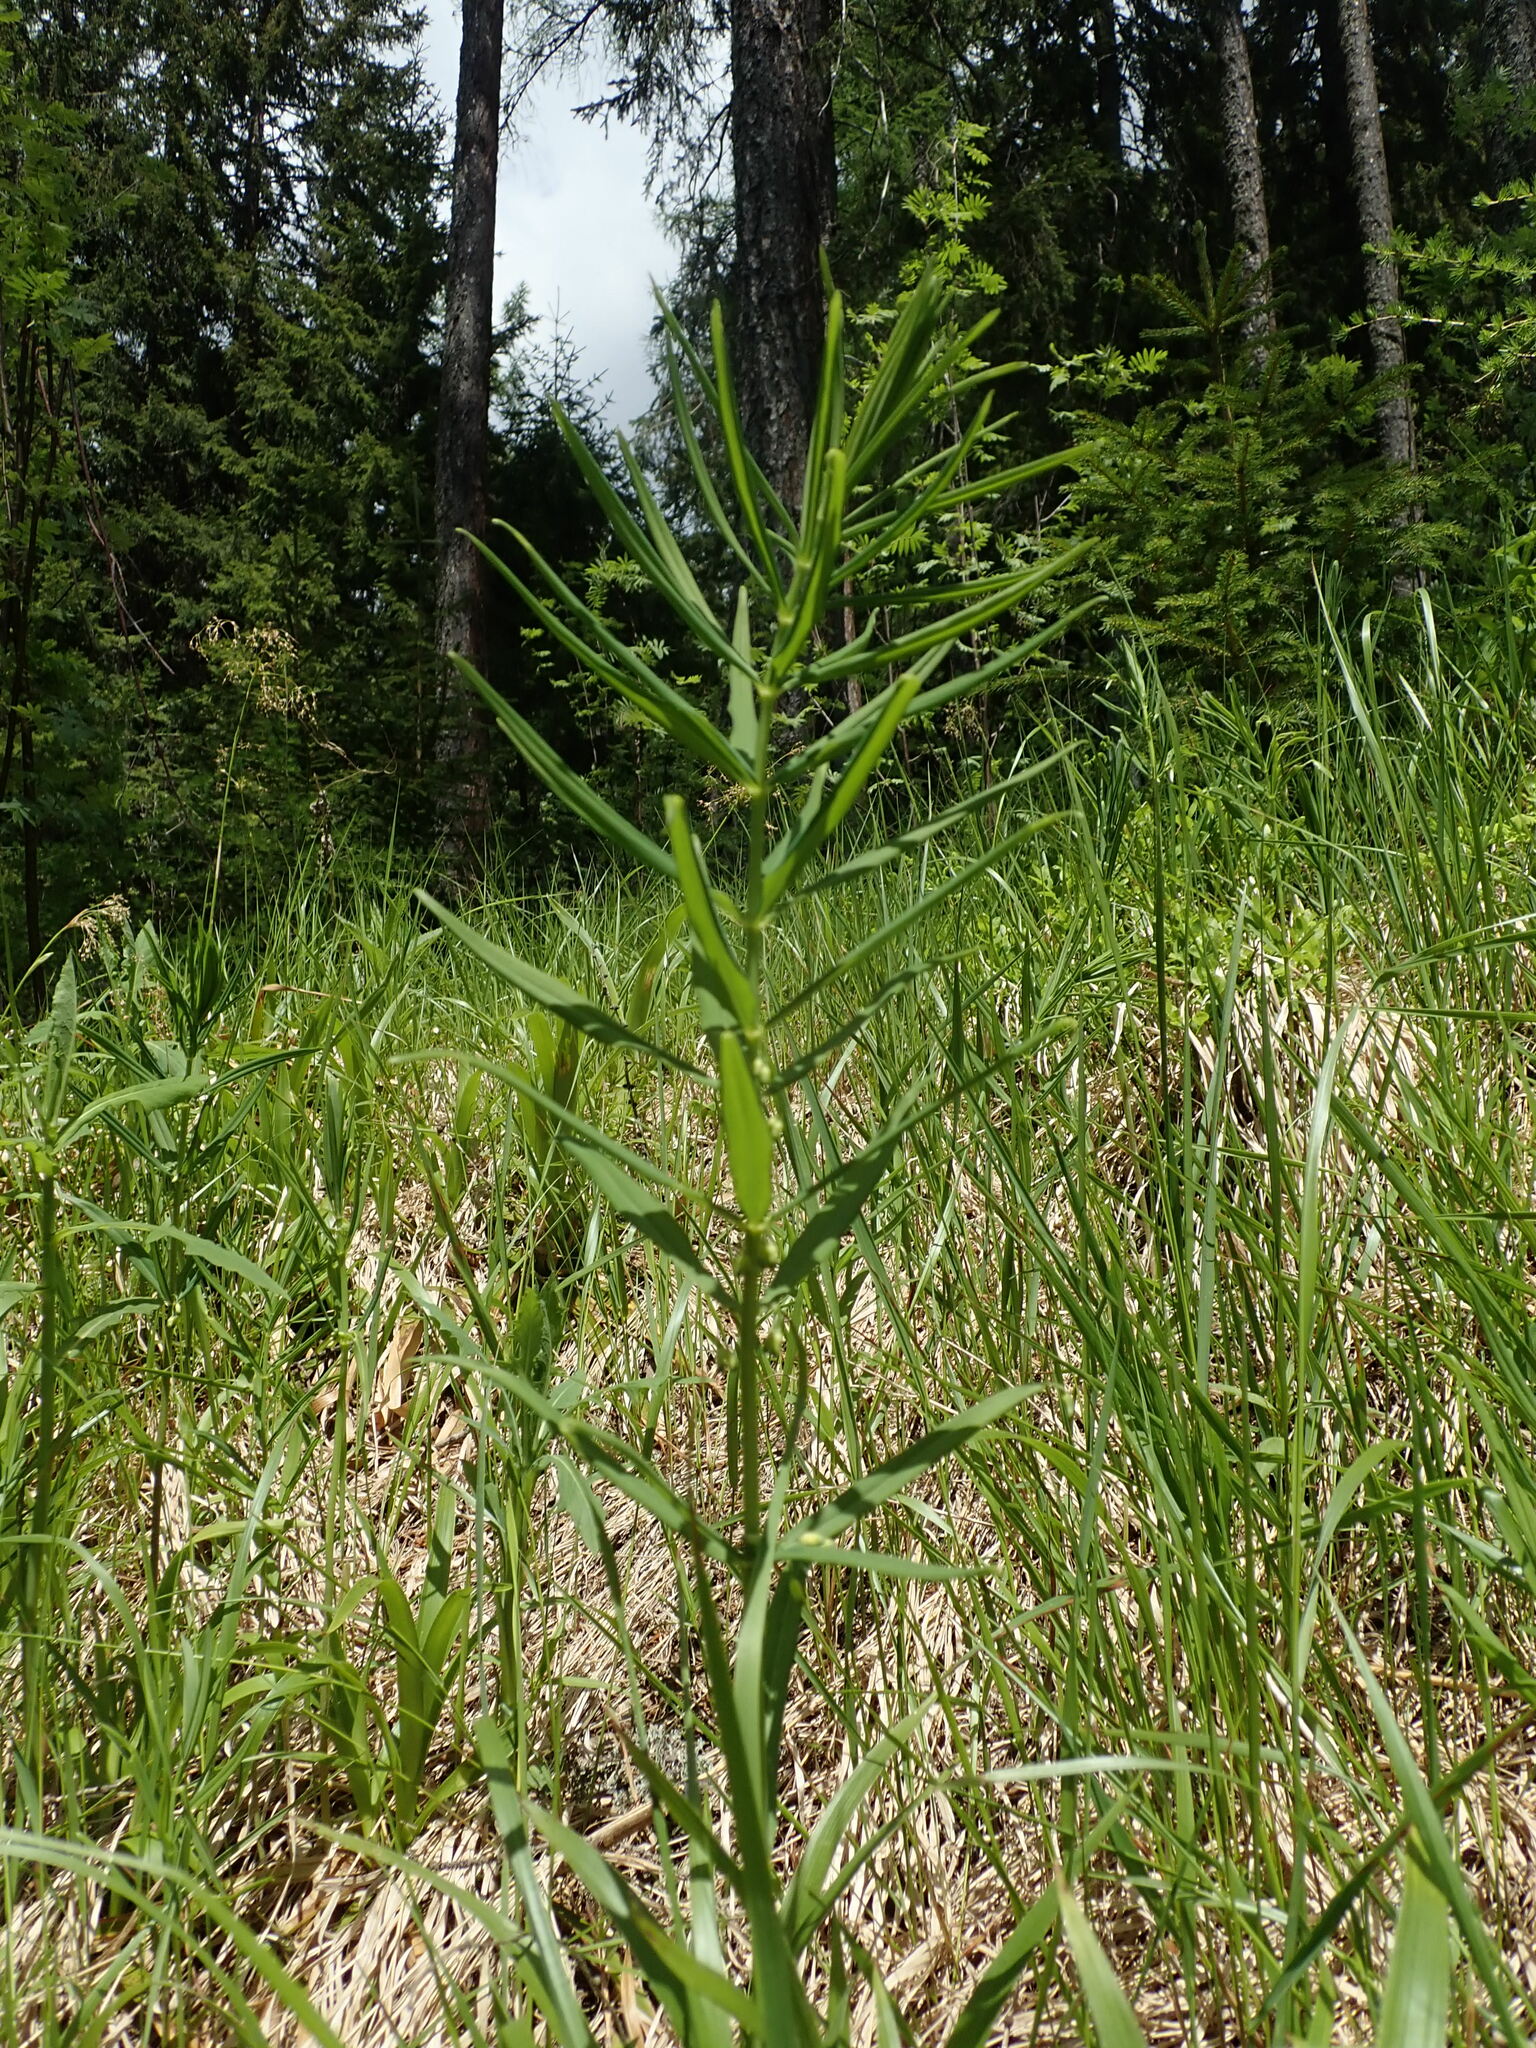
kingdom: Plantae
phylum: Tracheophyta
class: Liliopsida
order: Asparagales
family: Asparagaceae
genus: Polygonatum
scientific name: Polygonatum verticillatum
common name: Whorled solomon's-seal
